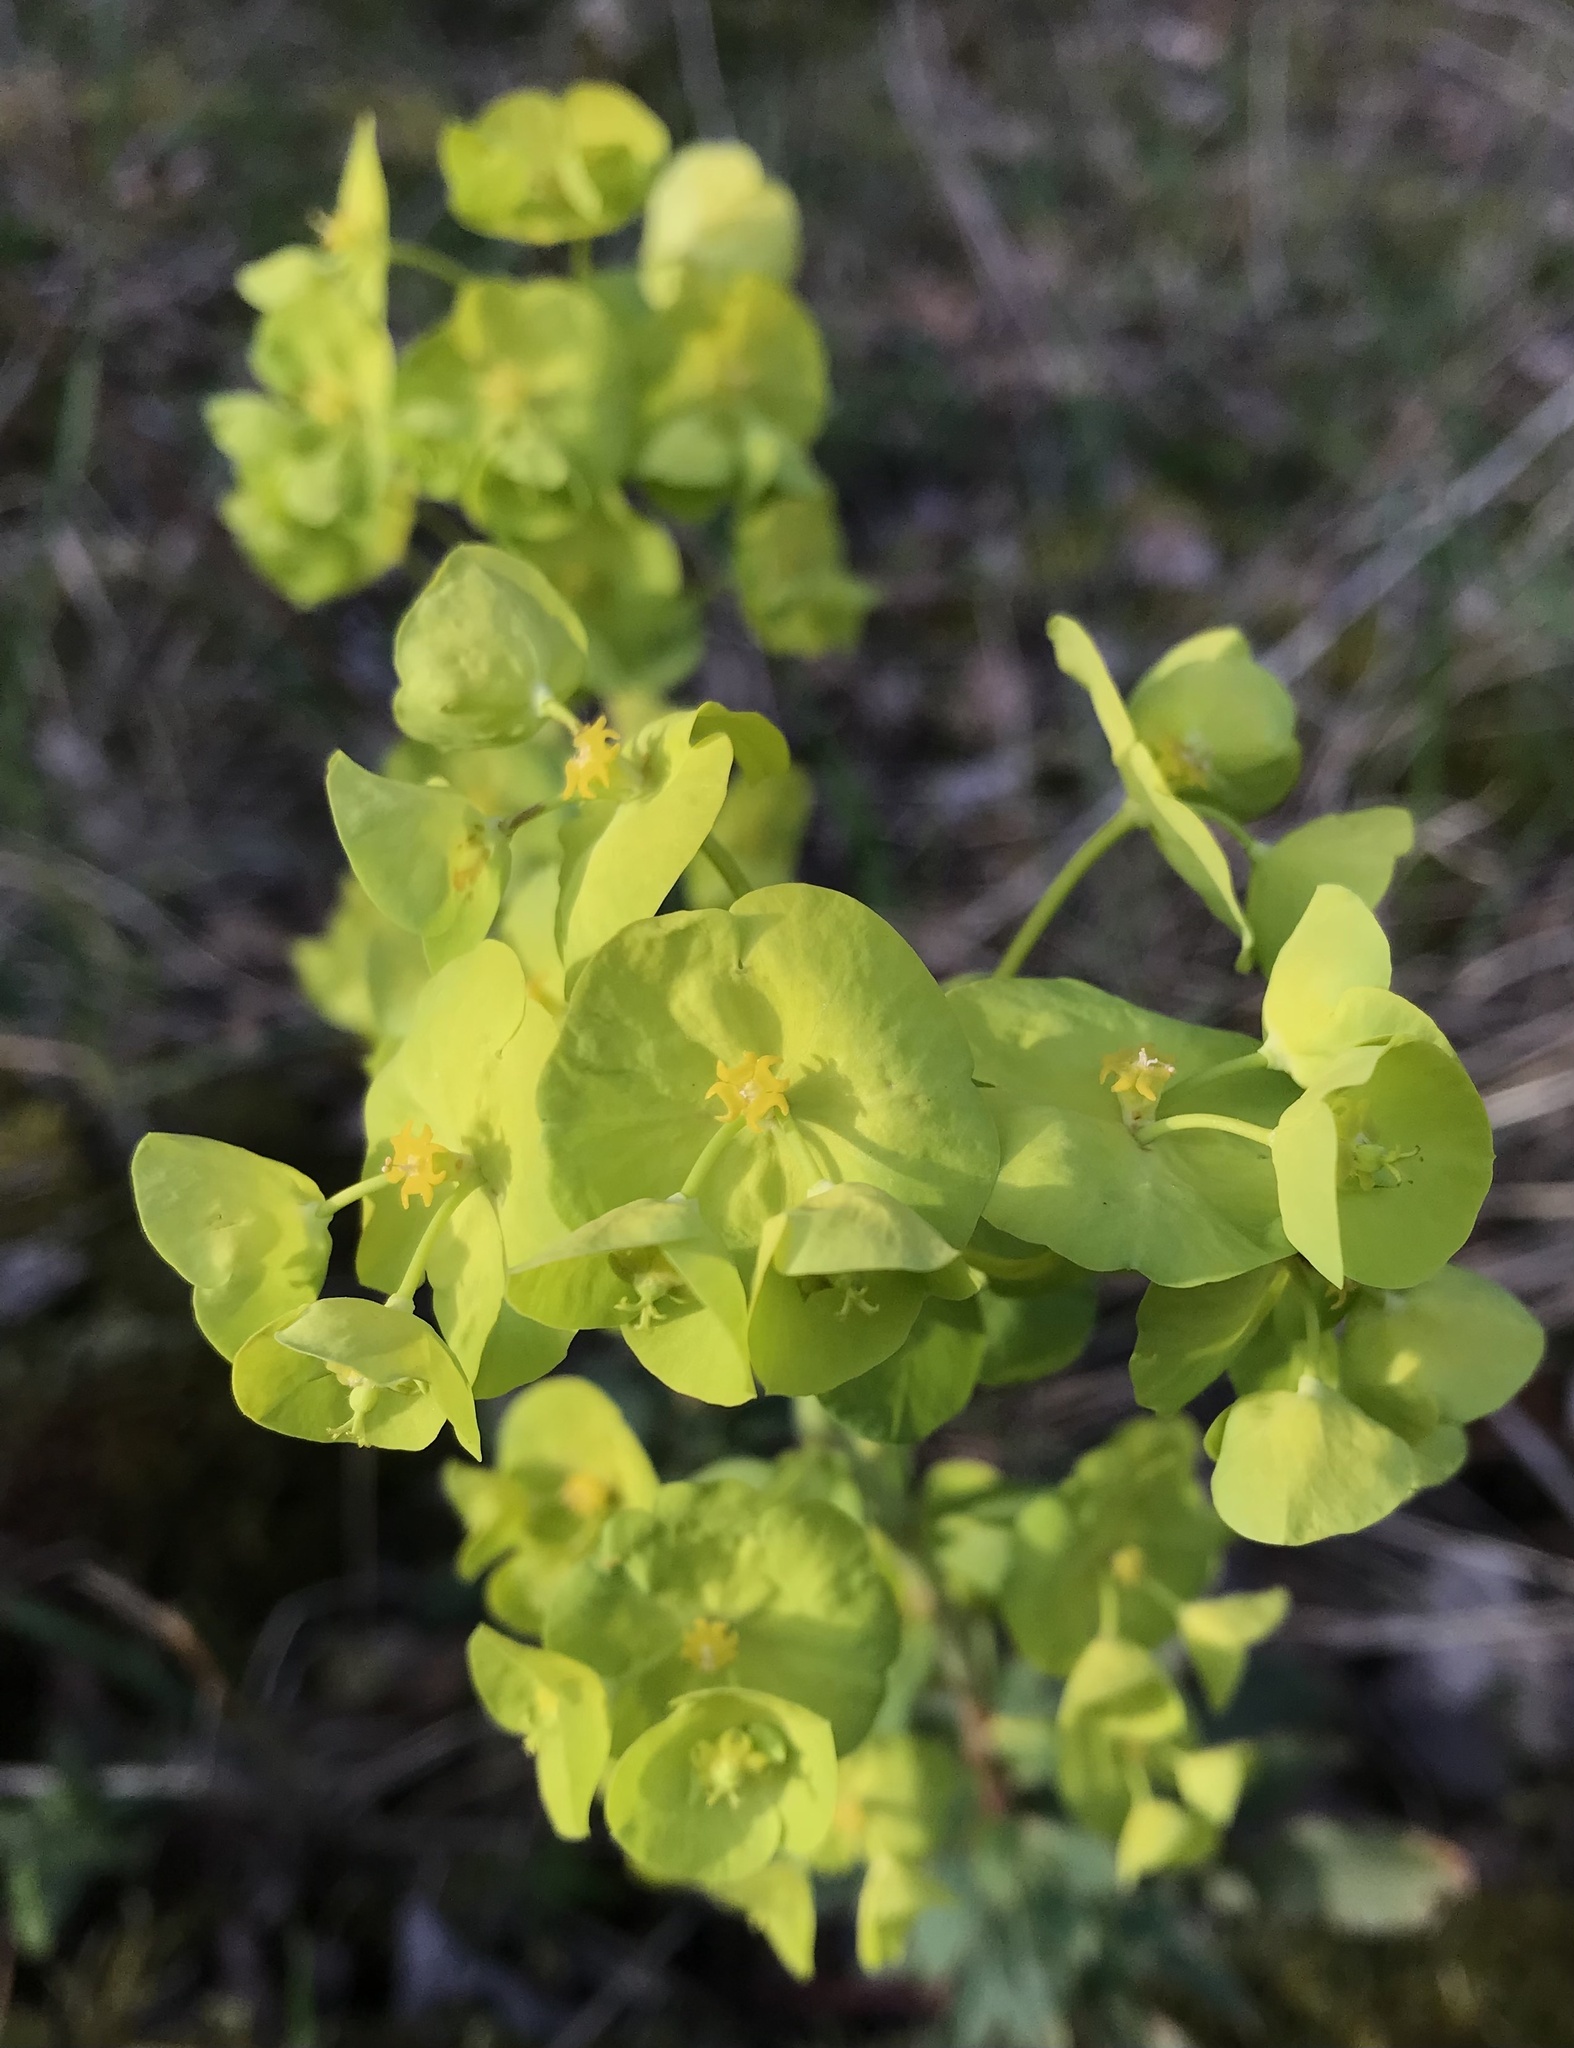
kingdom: Plantae
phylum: Tracheophyta
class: Magnoliopsida
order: Malpighiales
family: Euphorbiaceae
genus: Euphorbia
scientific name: Euphorbia amygdaloides
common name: Wood spurge
